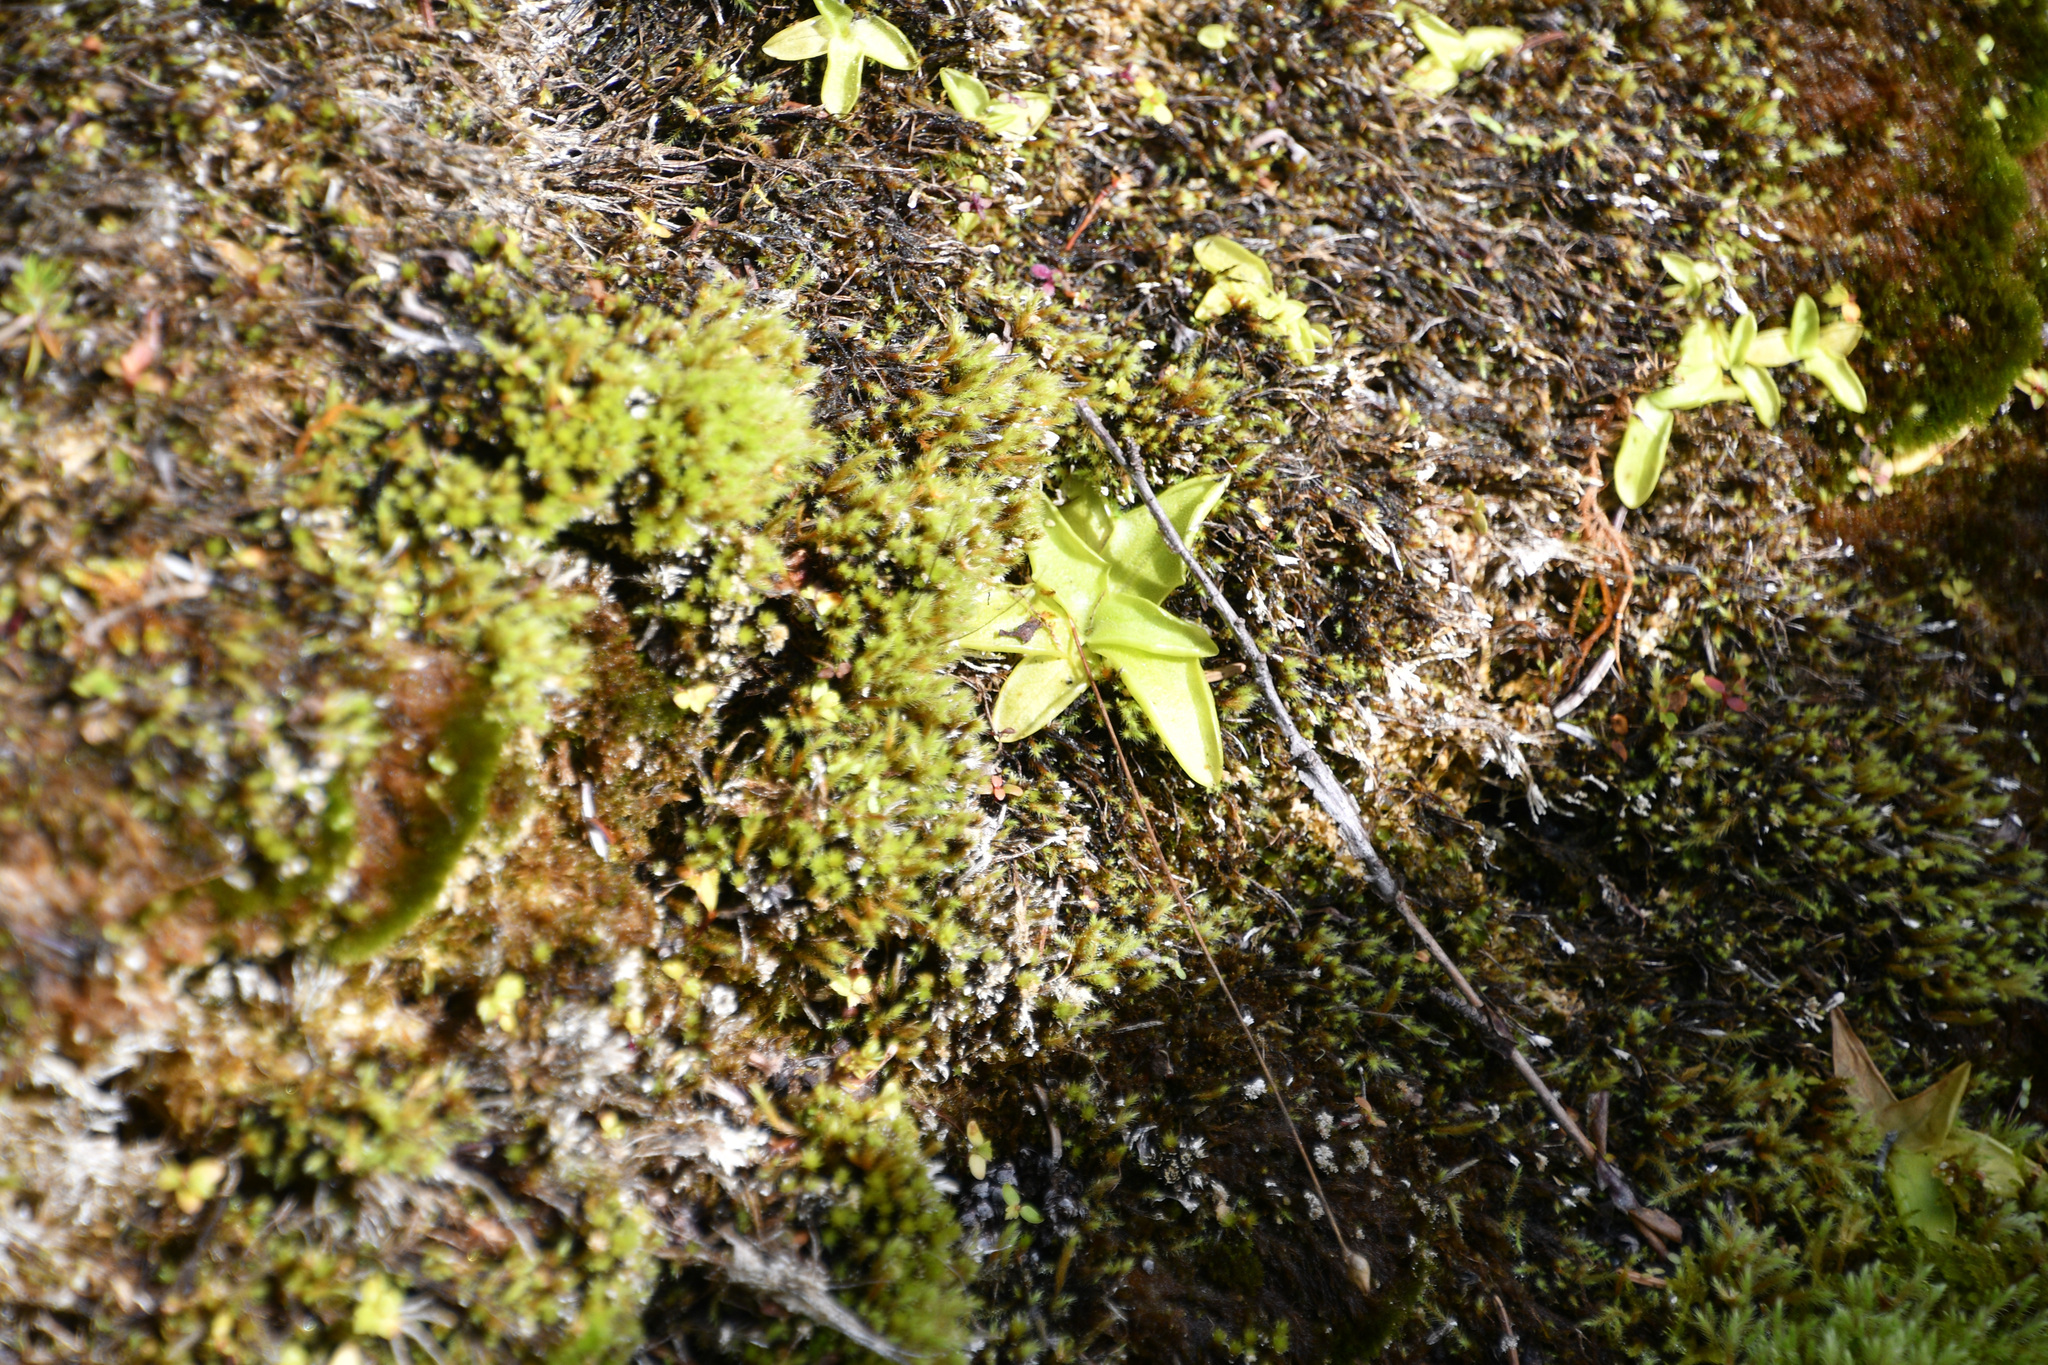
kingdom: Plantae
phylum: Tracheophyta
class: Magnoliopsida
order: Lamiales
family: Lentibulariaceae
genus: Pinguicula
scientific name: Pinguicula vulgaris
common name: Common butterwort
